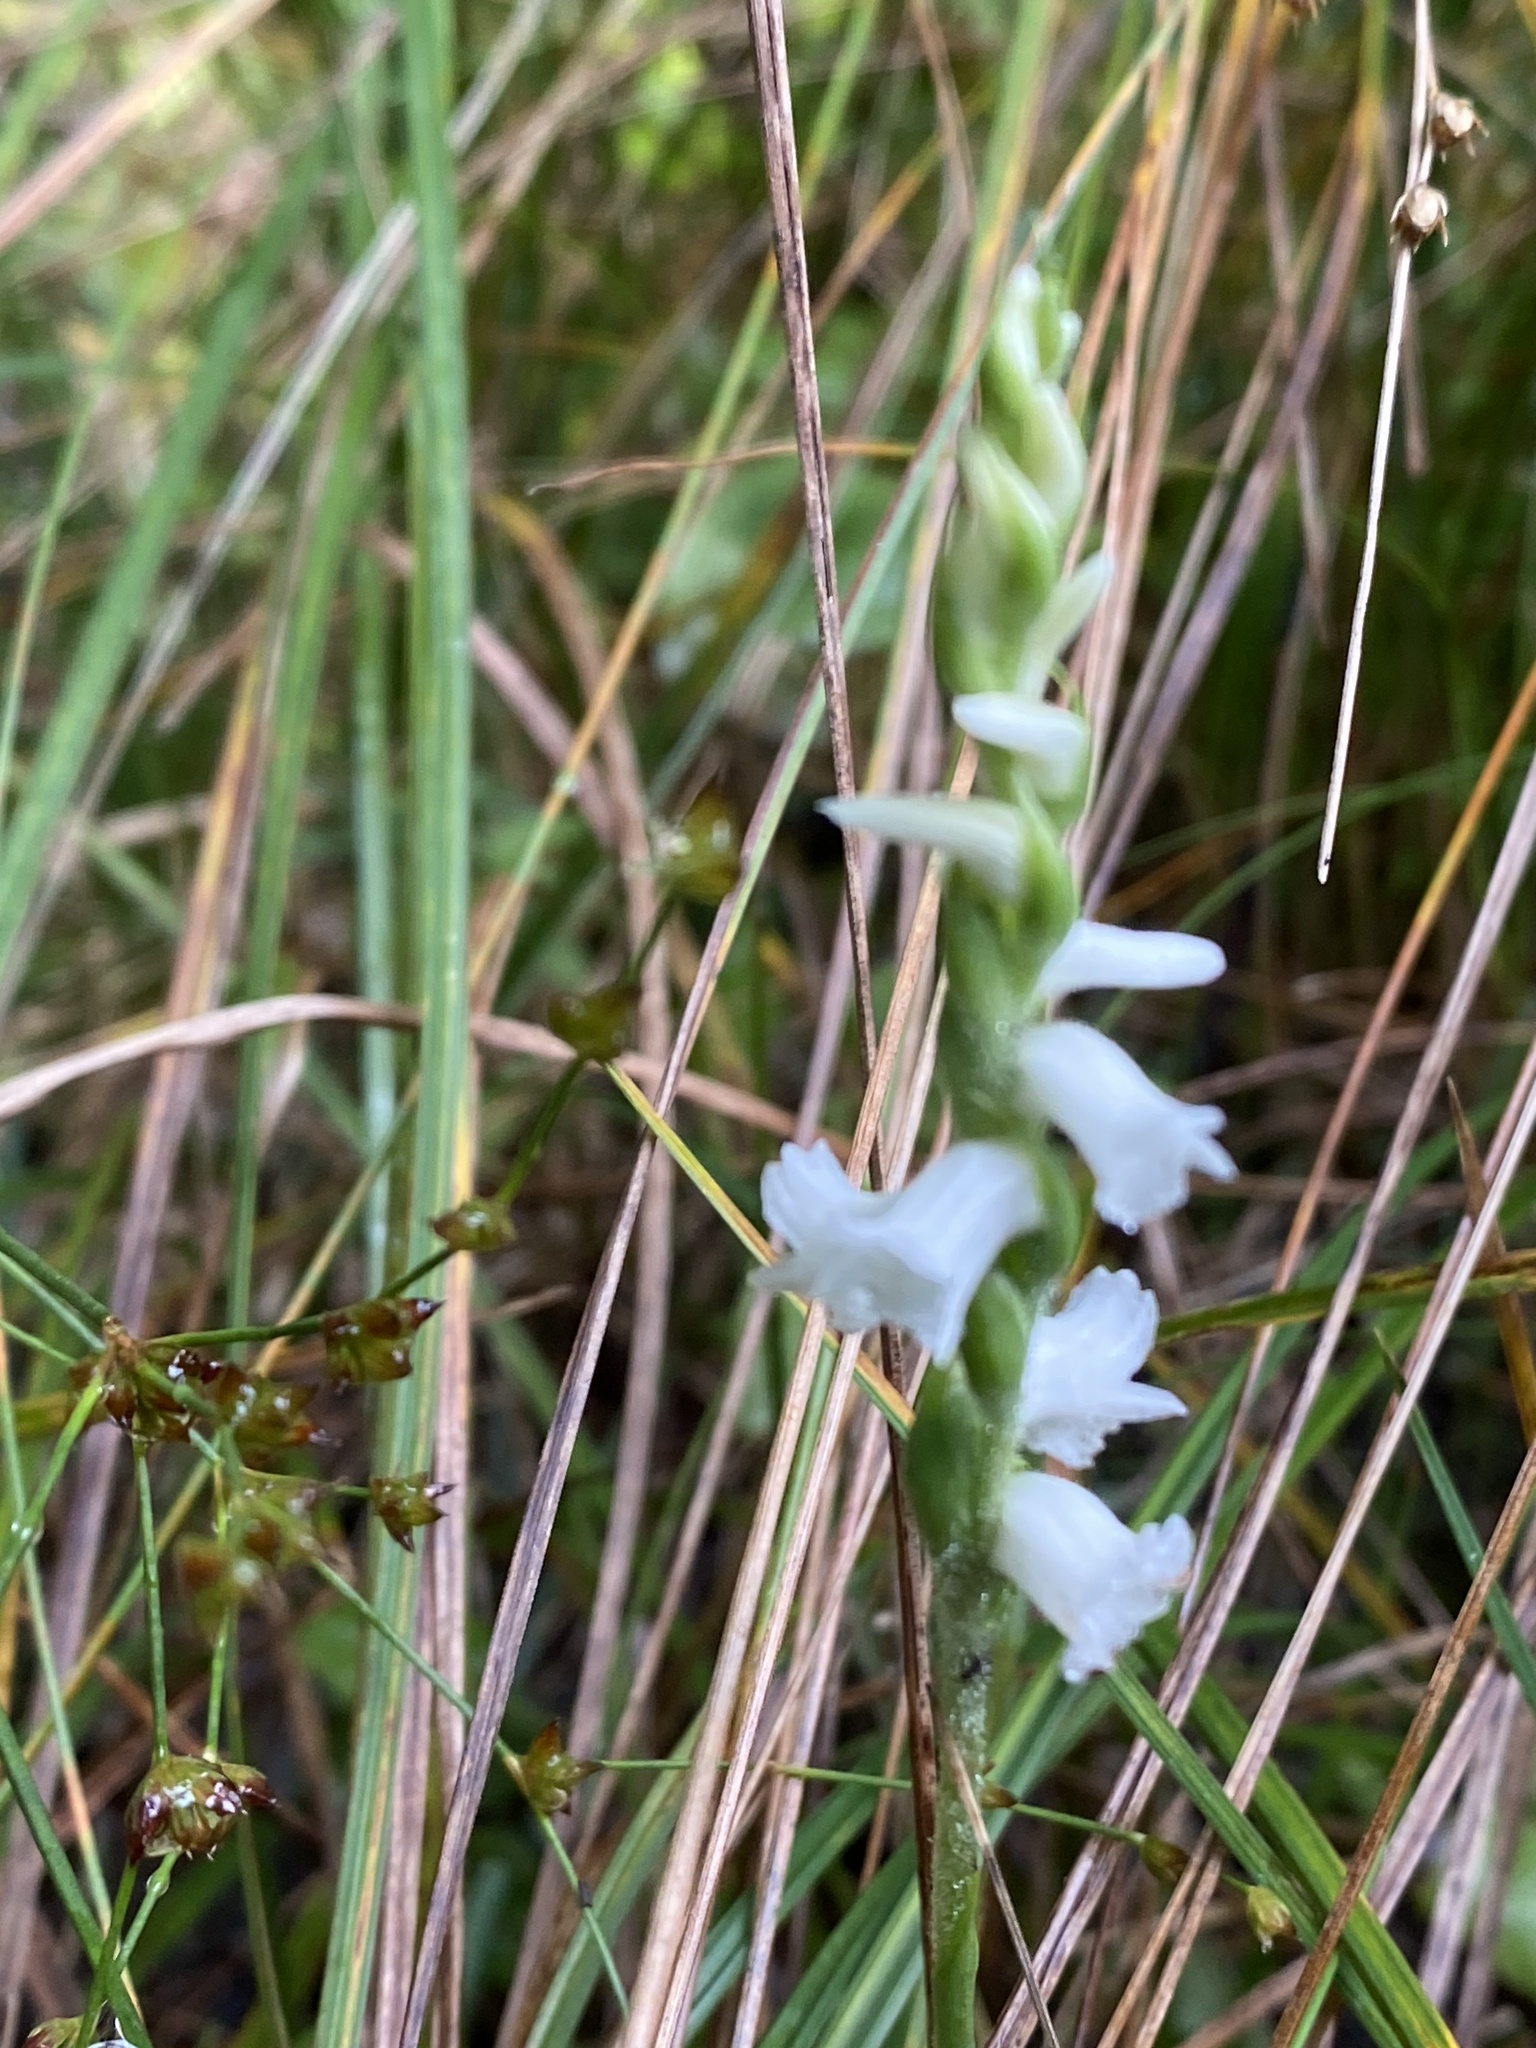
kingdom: Plantae
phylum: Tracheophyta
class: Liliopsida
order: Asparagales
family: Orchidaceae
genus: Spiranthes
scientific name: Spiranthes arcisepala
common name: Appalachian ladies'-tresses
